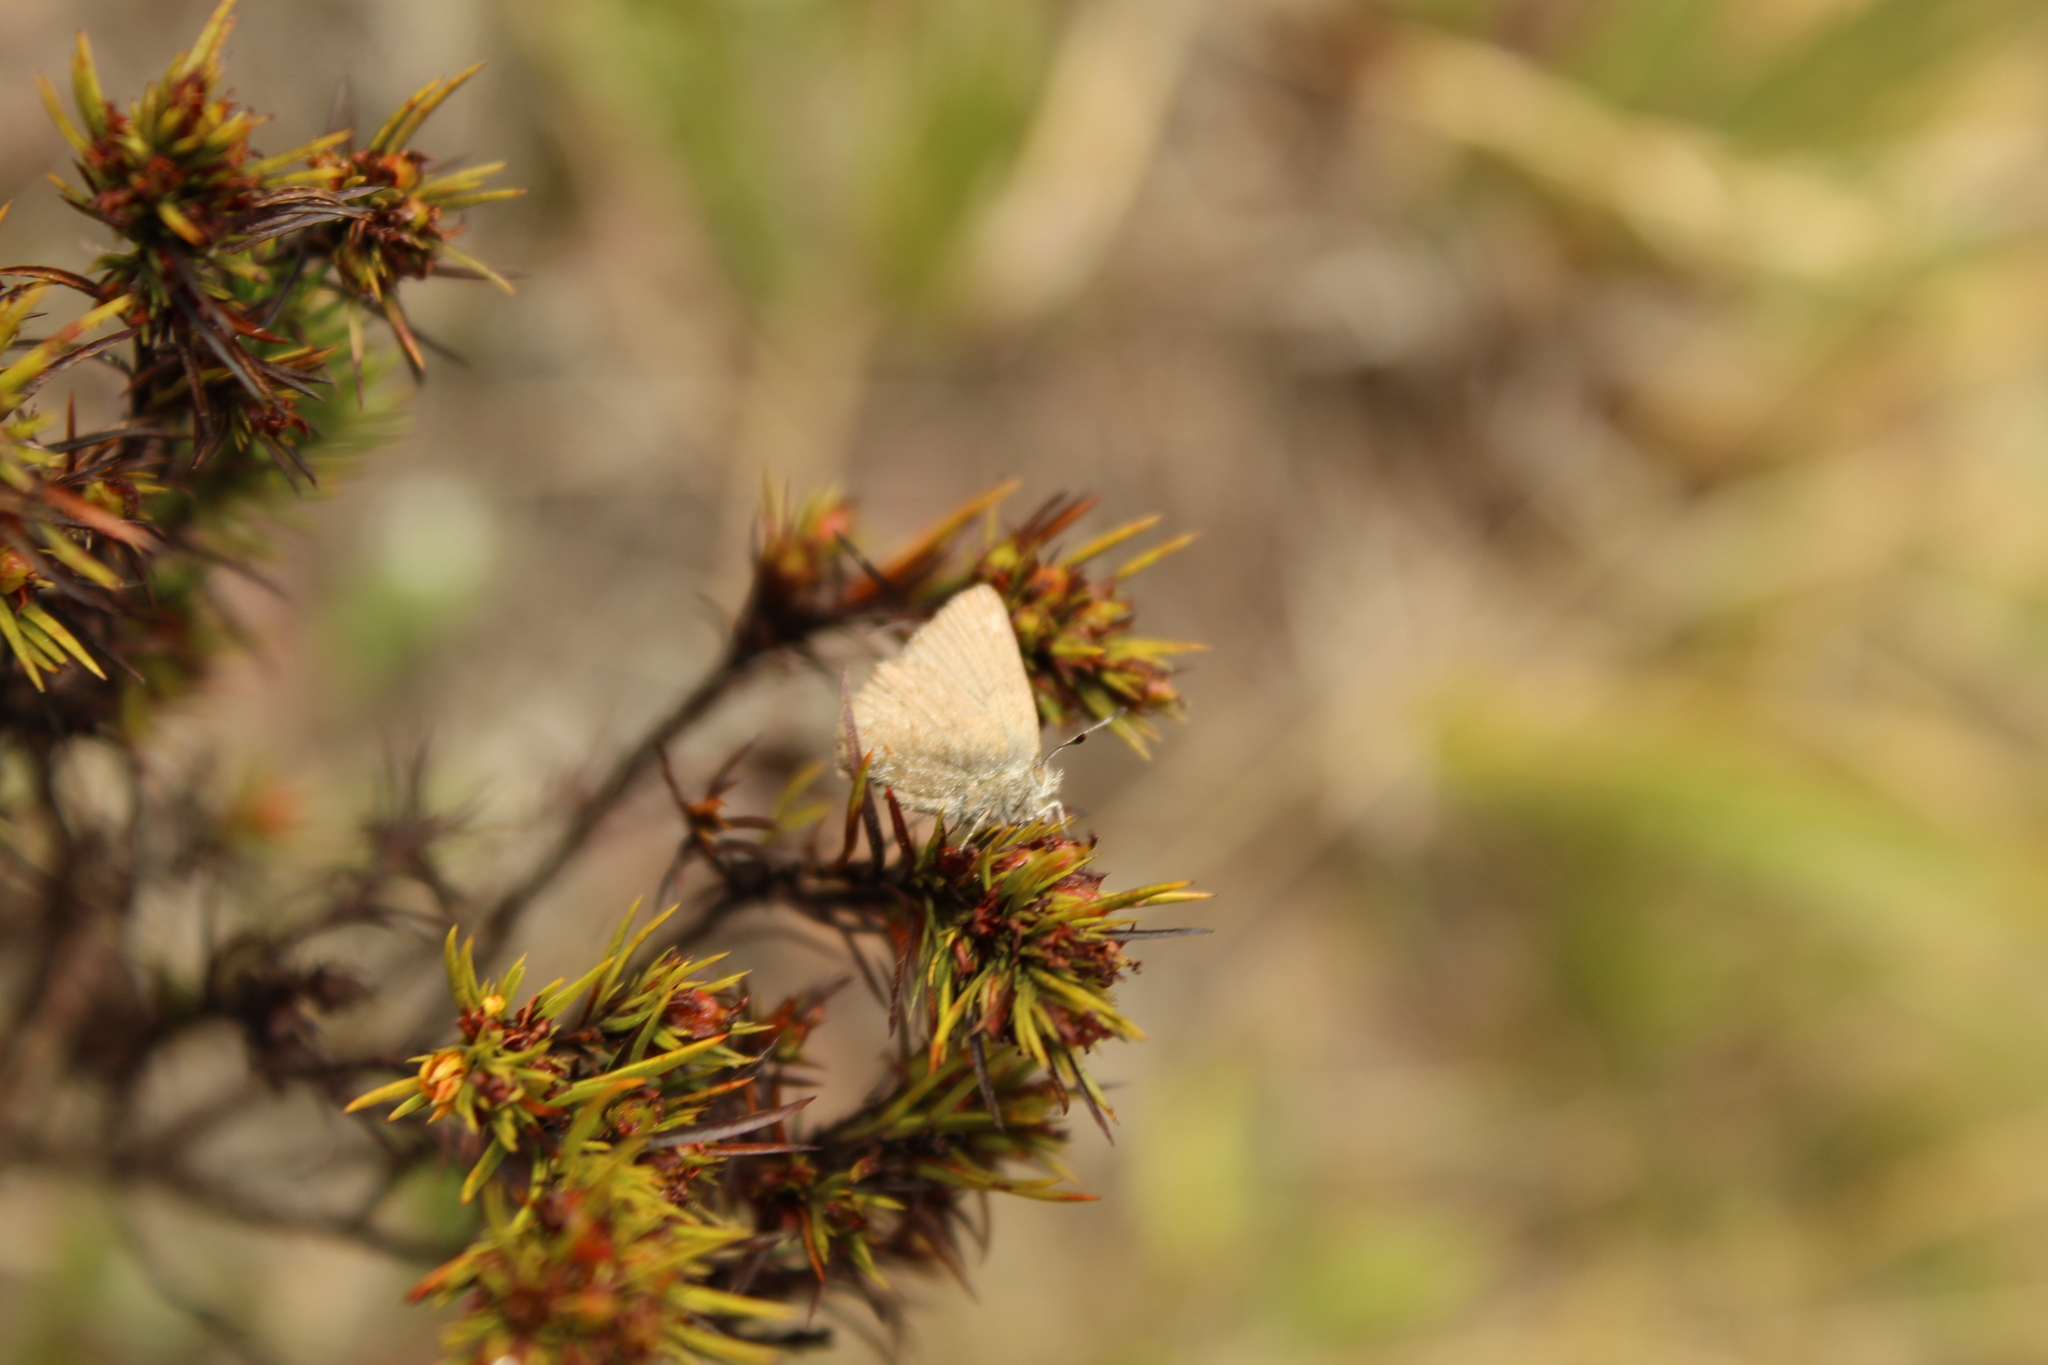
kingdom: Animalia
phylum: Arthropoda
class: Insecta
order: Lepidoptera
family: Lycaenidae
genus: Penaincisalia
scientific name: Penaincisalia anosma
